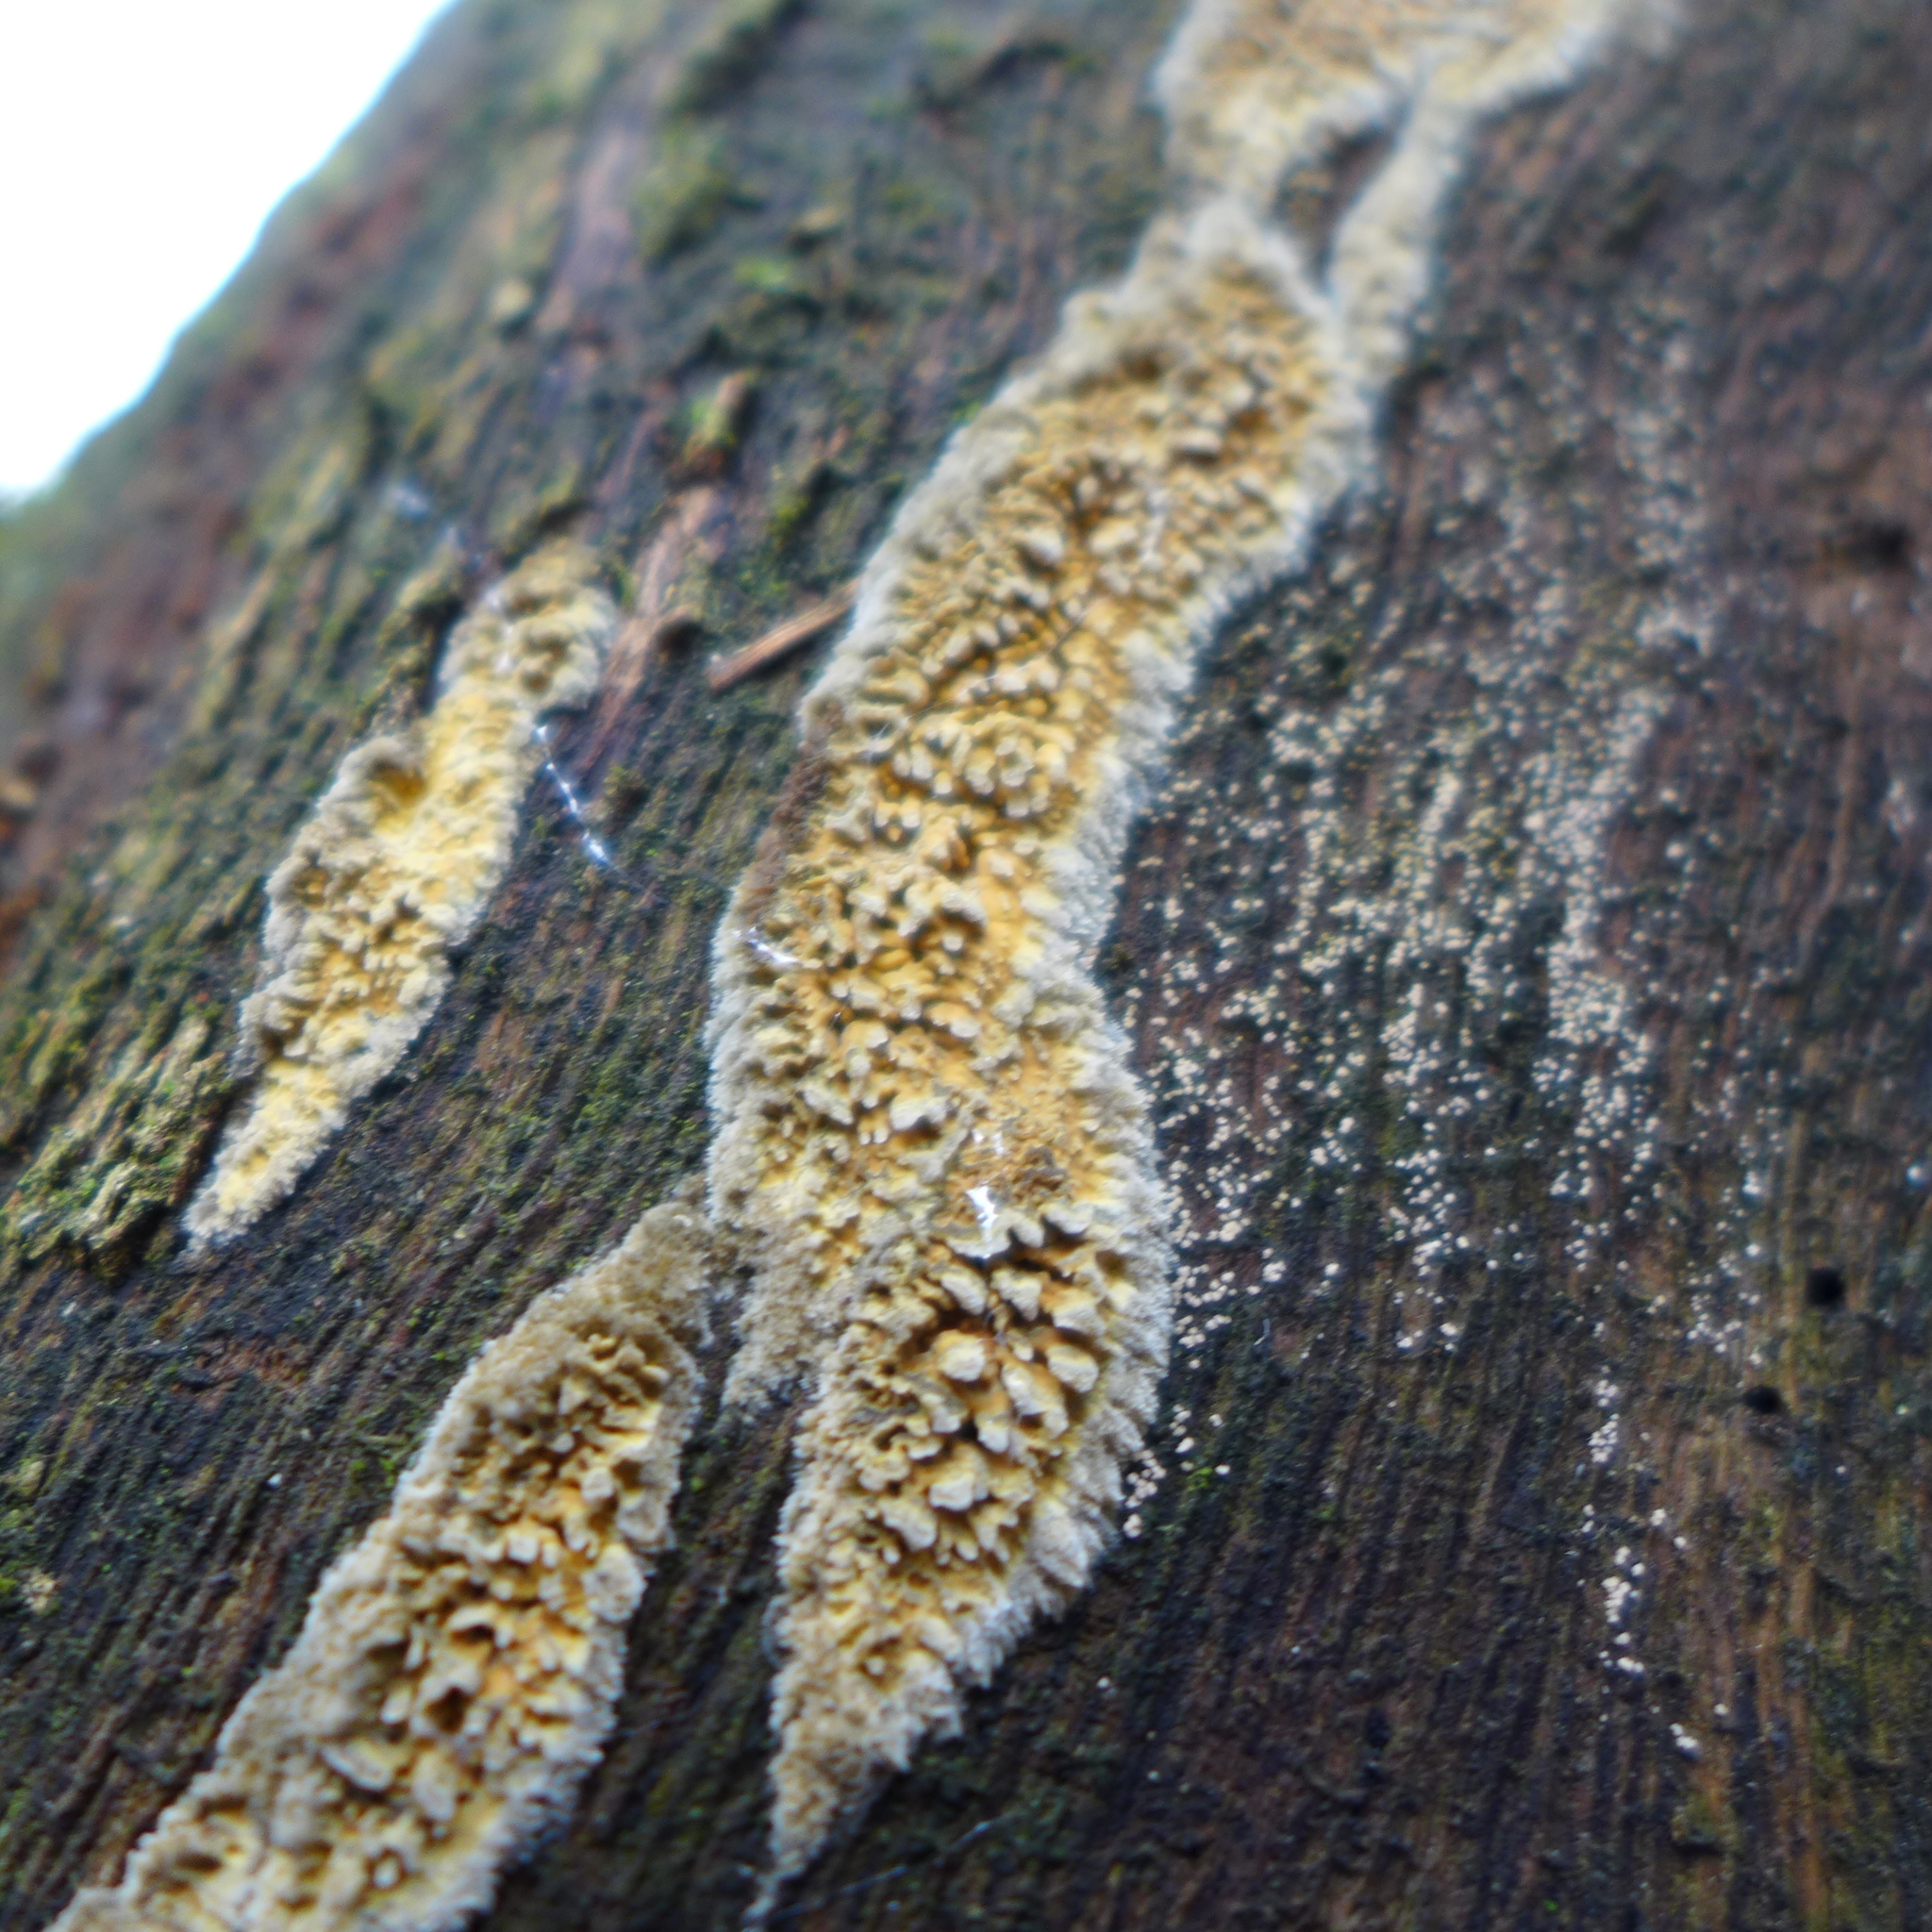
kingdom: Fungi
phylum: Basidiomycota
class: Agaricomycetes
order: Polyporales
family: Phanerochaetaceae
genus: Pirex
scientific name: Pirex concentricus
